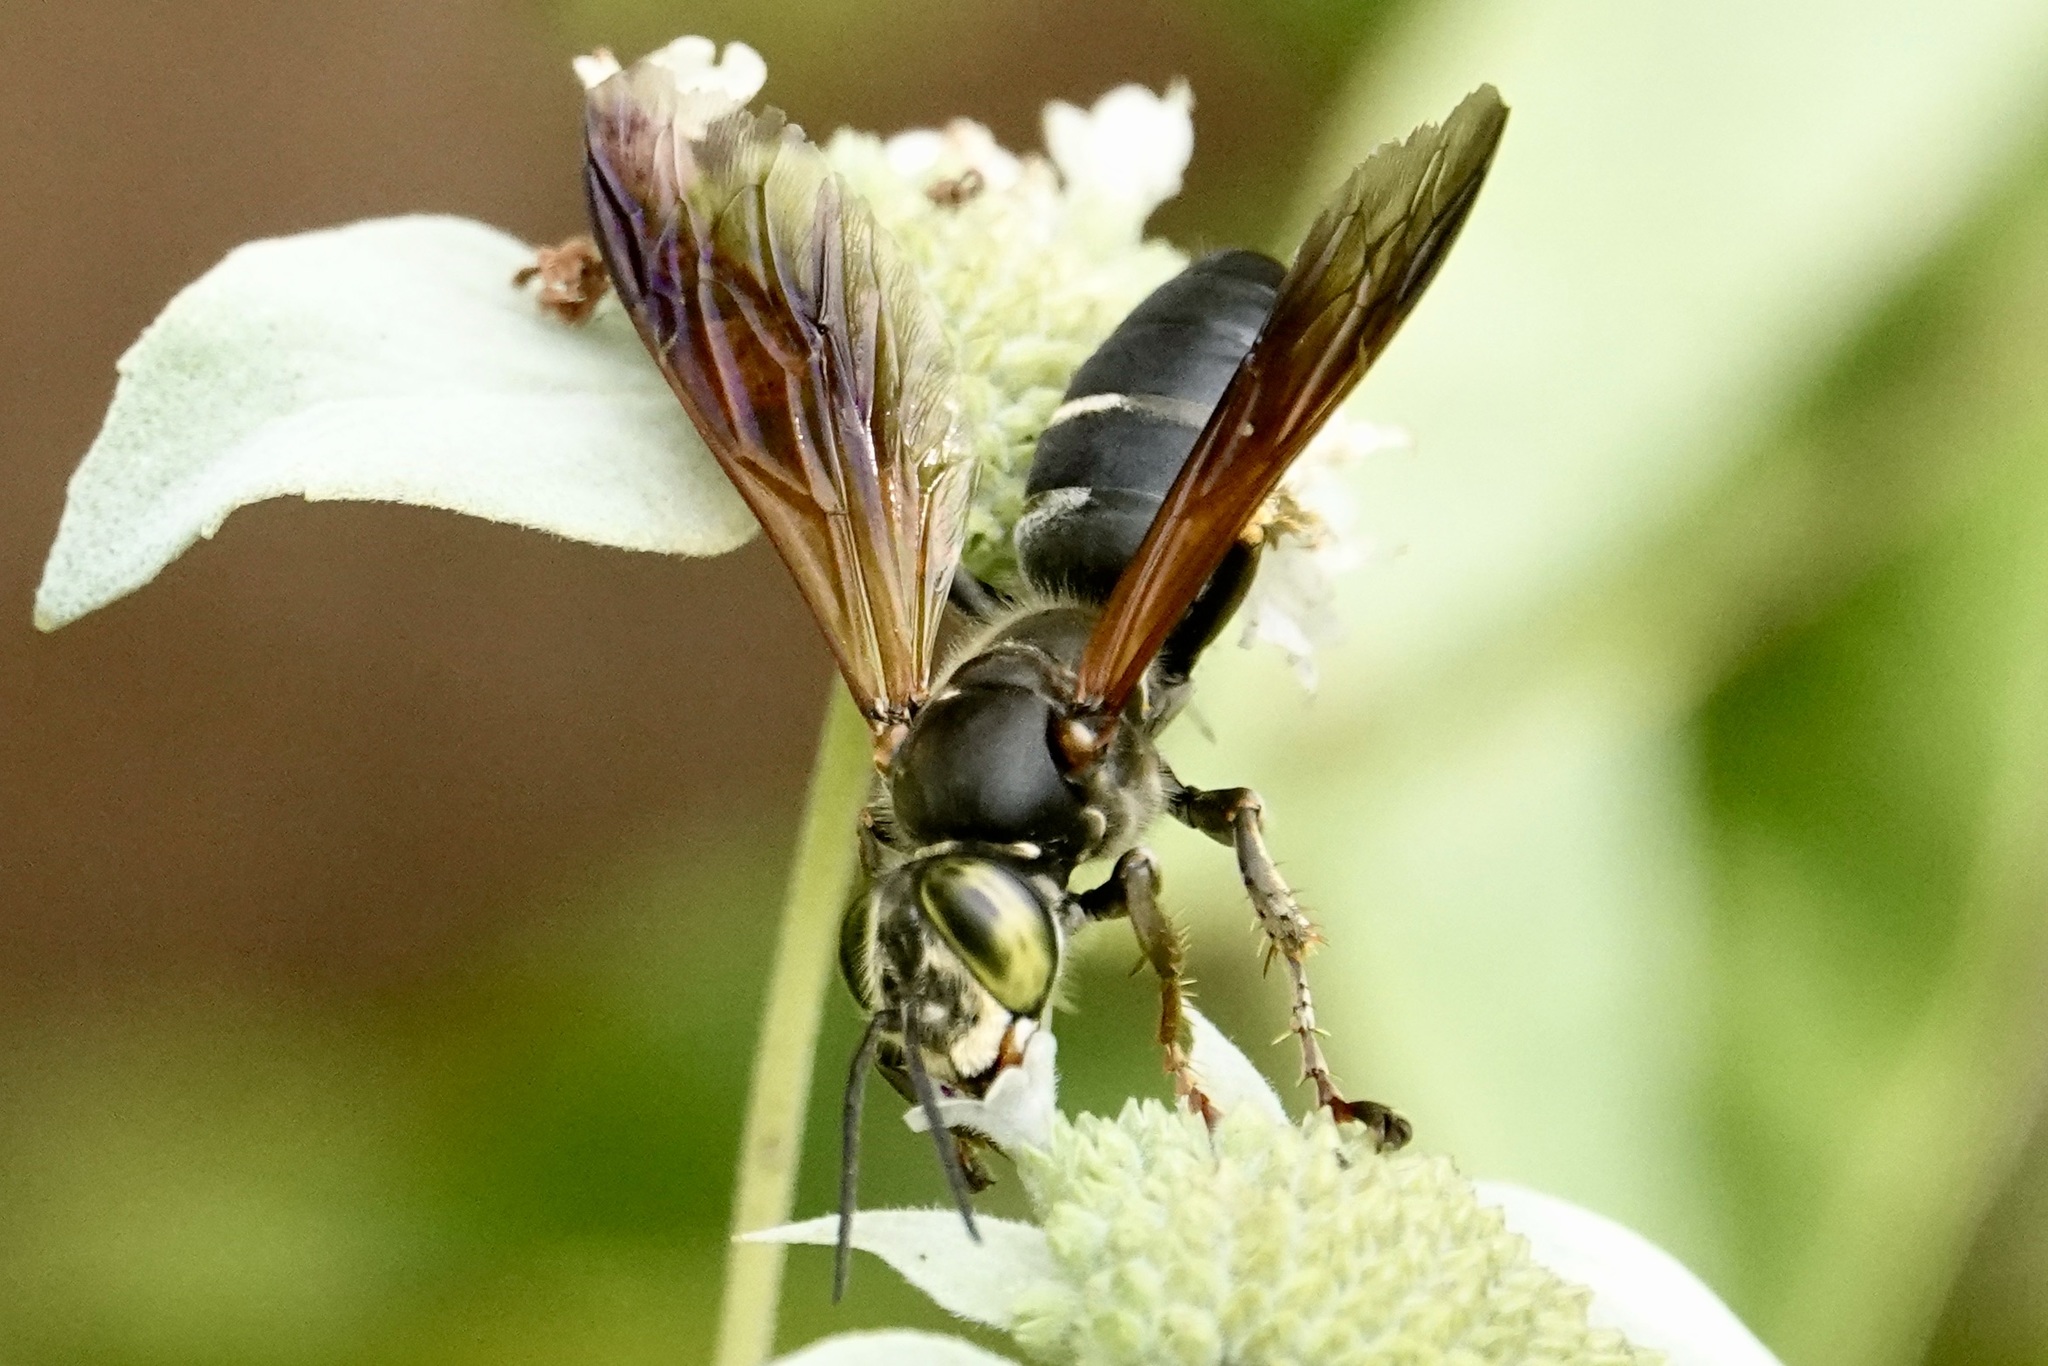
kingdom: Animalia
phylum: Arthropoda
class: Insecta
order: Hymenoptera
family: Crabronidae
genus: Tachytes
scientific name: Tachytes guatemalensis
